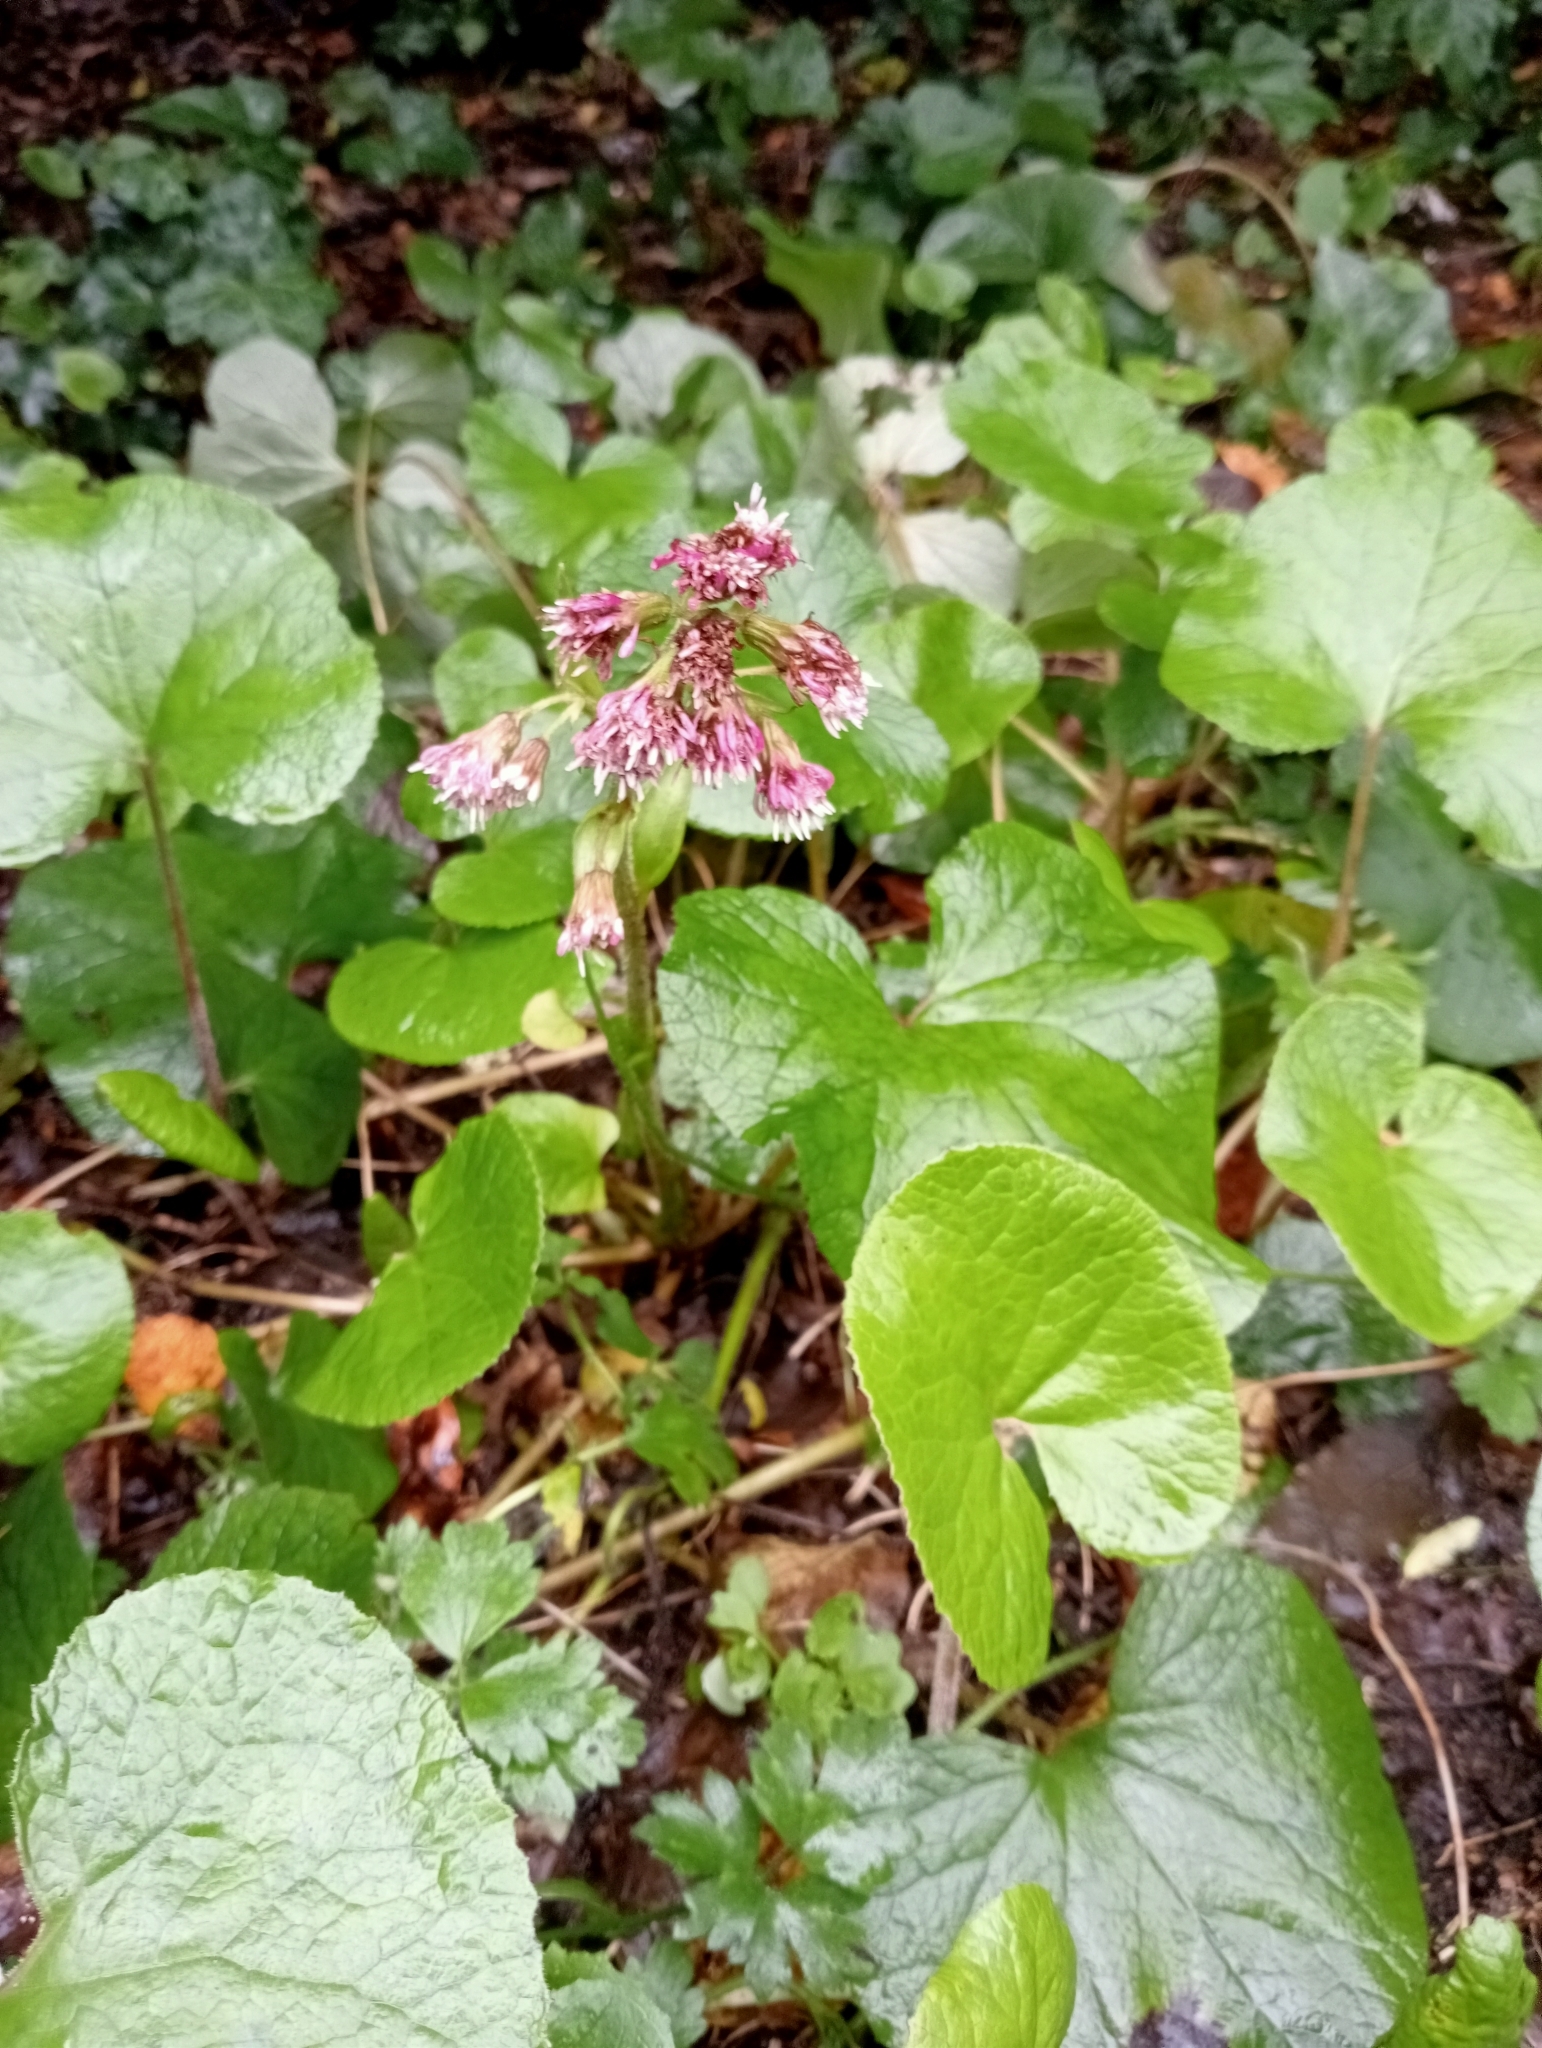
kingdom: Plantae
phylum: Tracheophyta
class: Magnoliopsida
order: Asterales
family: Asteraceae
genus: Petasites
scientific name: Petasites pyrenaicus
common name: Winter heliotrope
